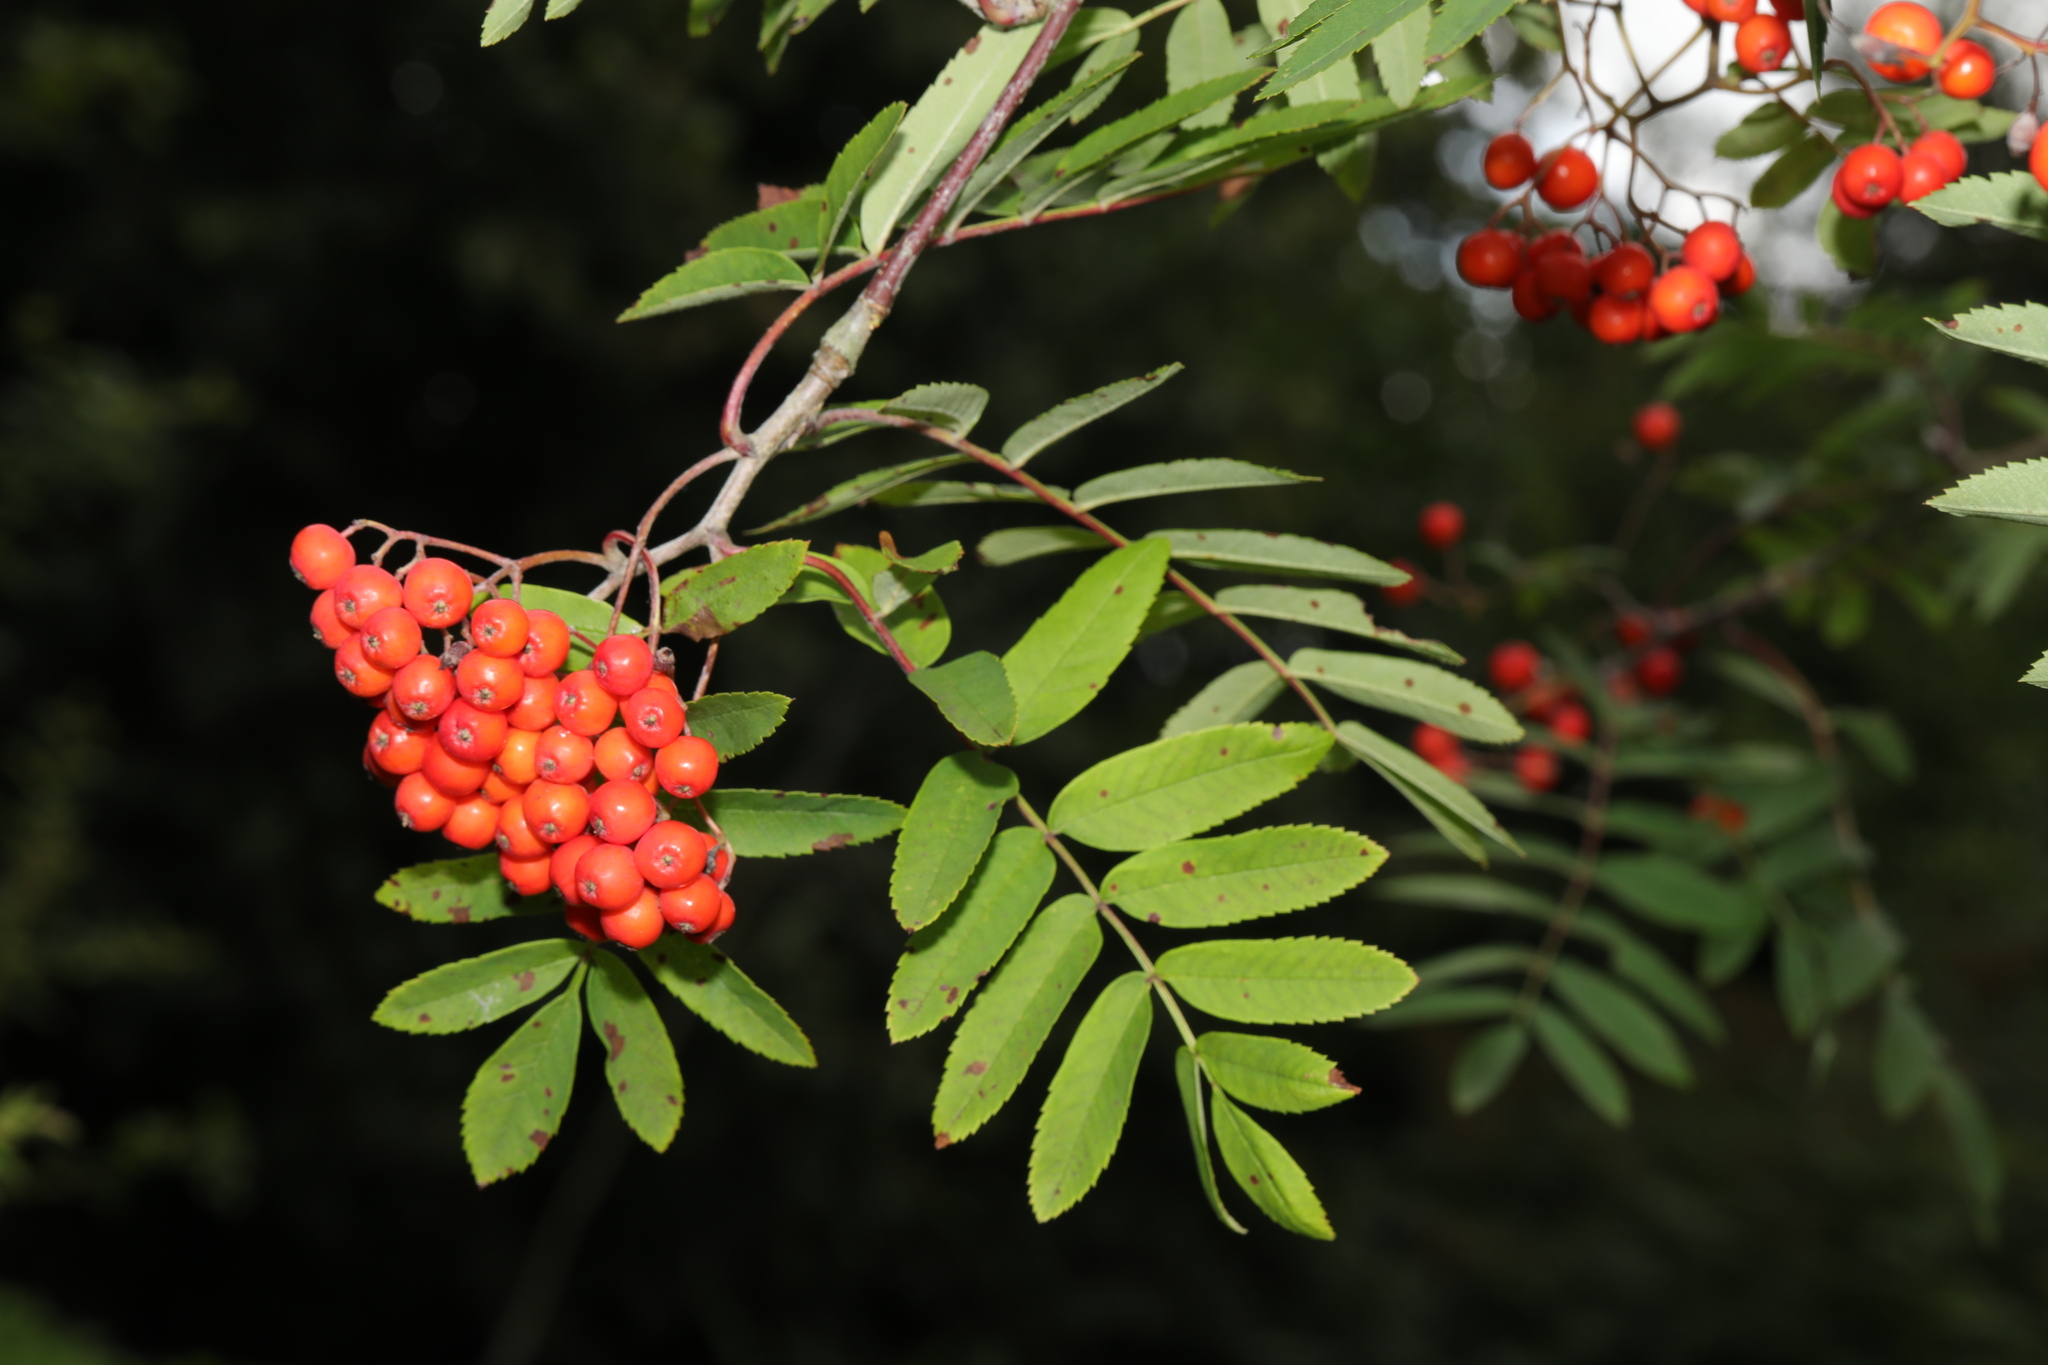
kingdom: Plantae
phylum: Tracheophyta
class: Magnoliopsida
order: Rosales
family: Rosaceae
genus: Sorbus
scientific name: Sorbus aucuparia
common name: Rowan
